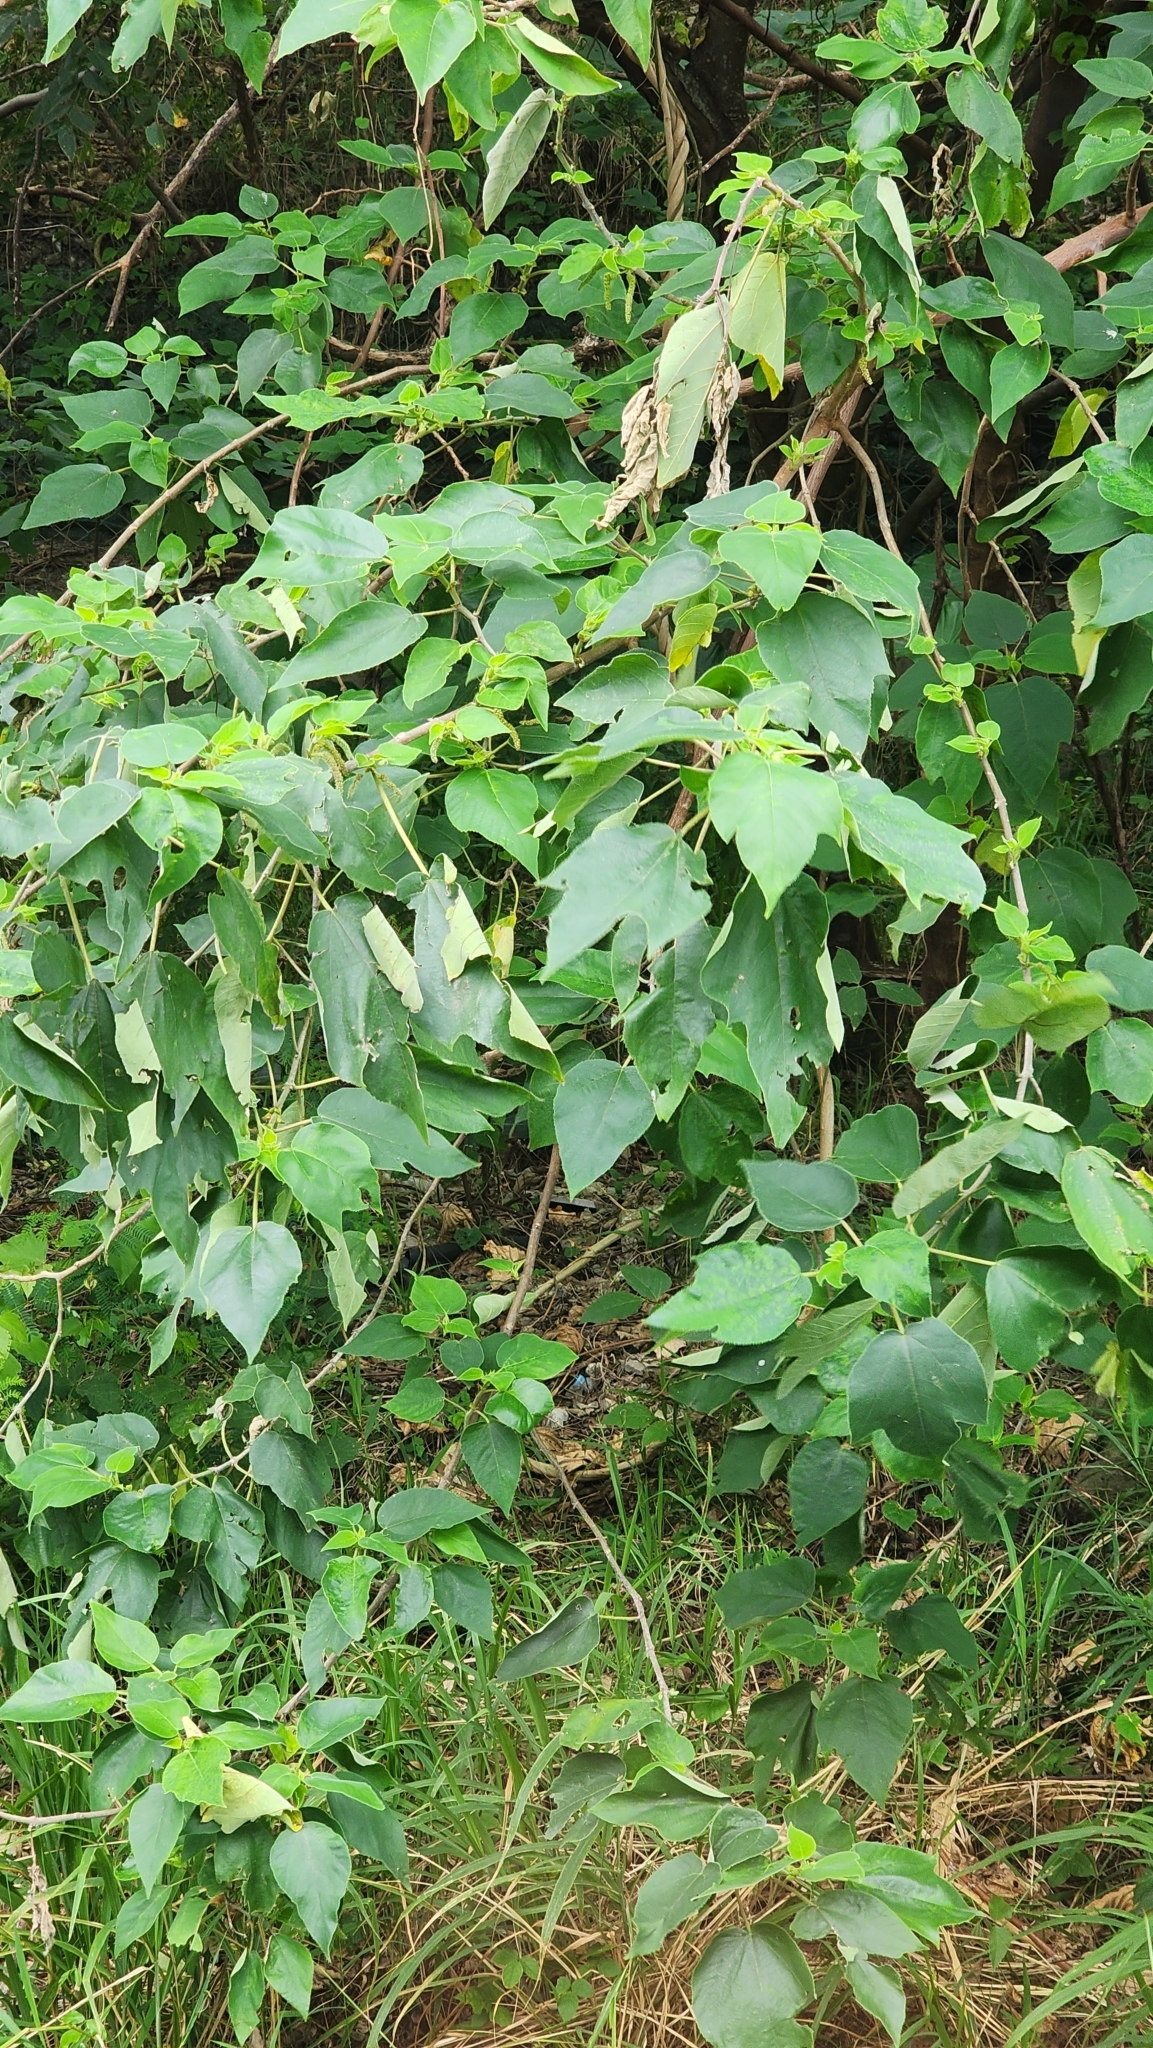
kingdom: Plantae
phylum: Tracheophyta
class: Magnoliopsida
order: Rosales
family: Moraceae
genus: Broussonetia
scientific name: Broussonetia papyrifera
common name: Paper mulberry
